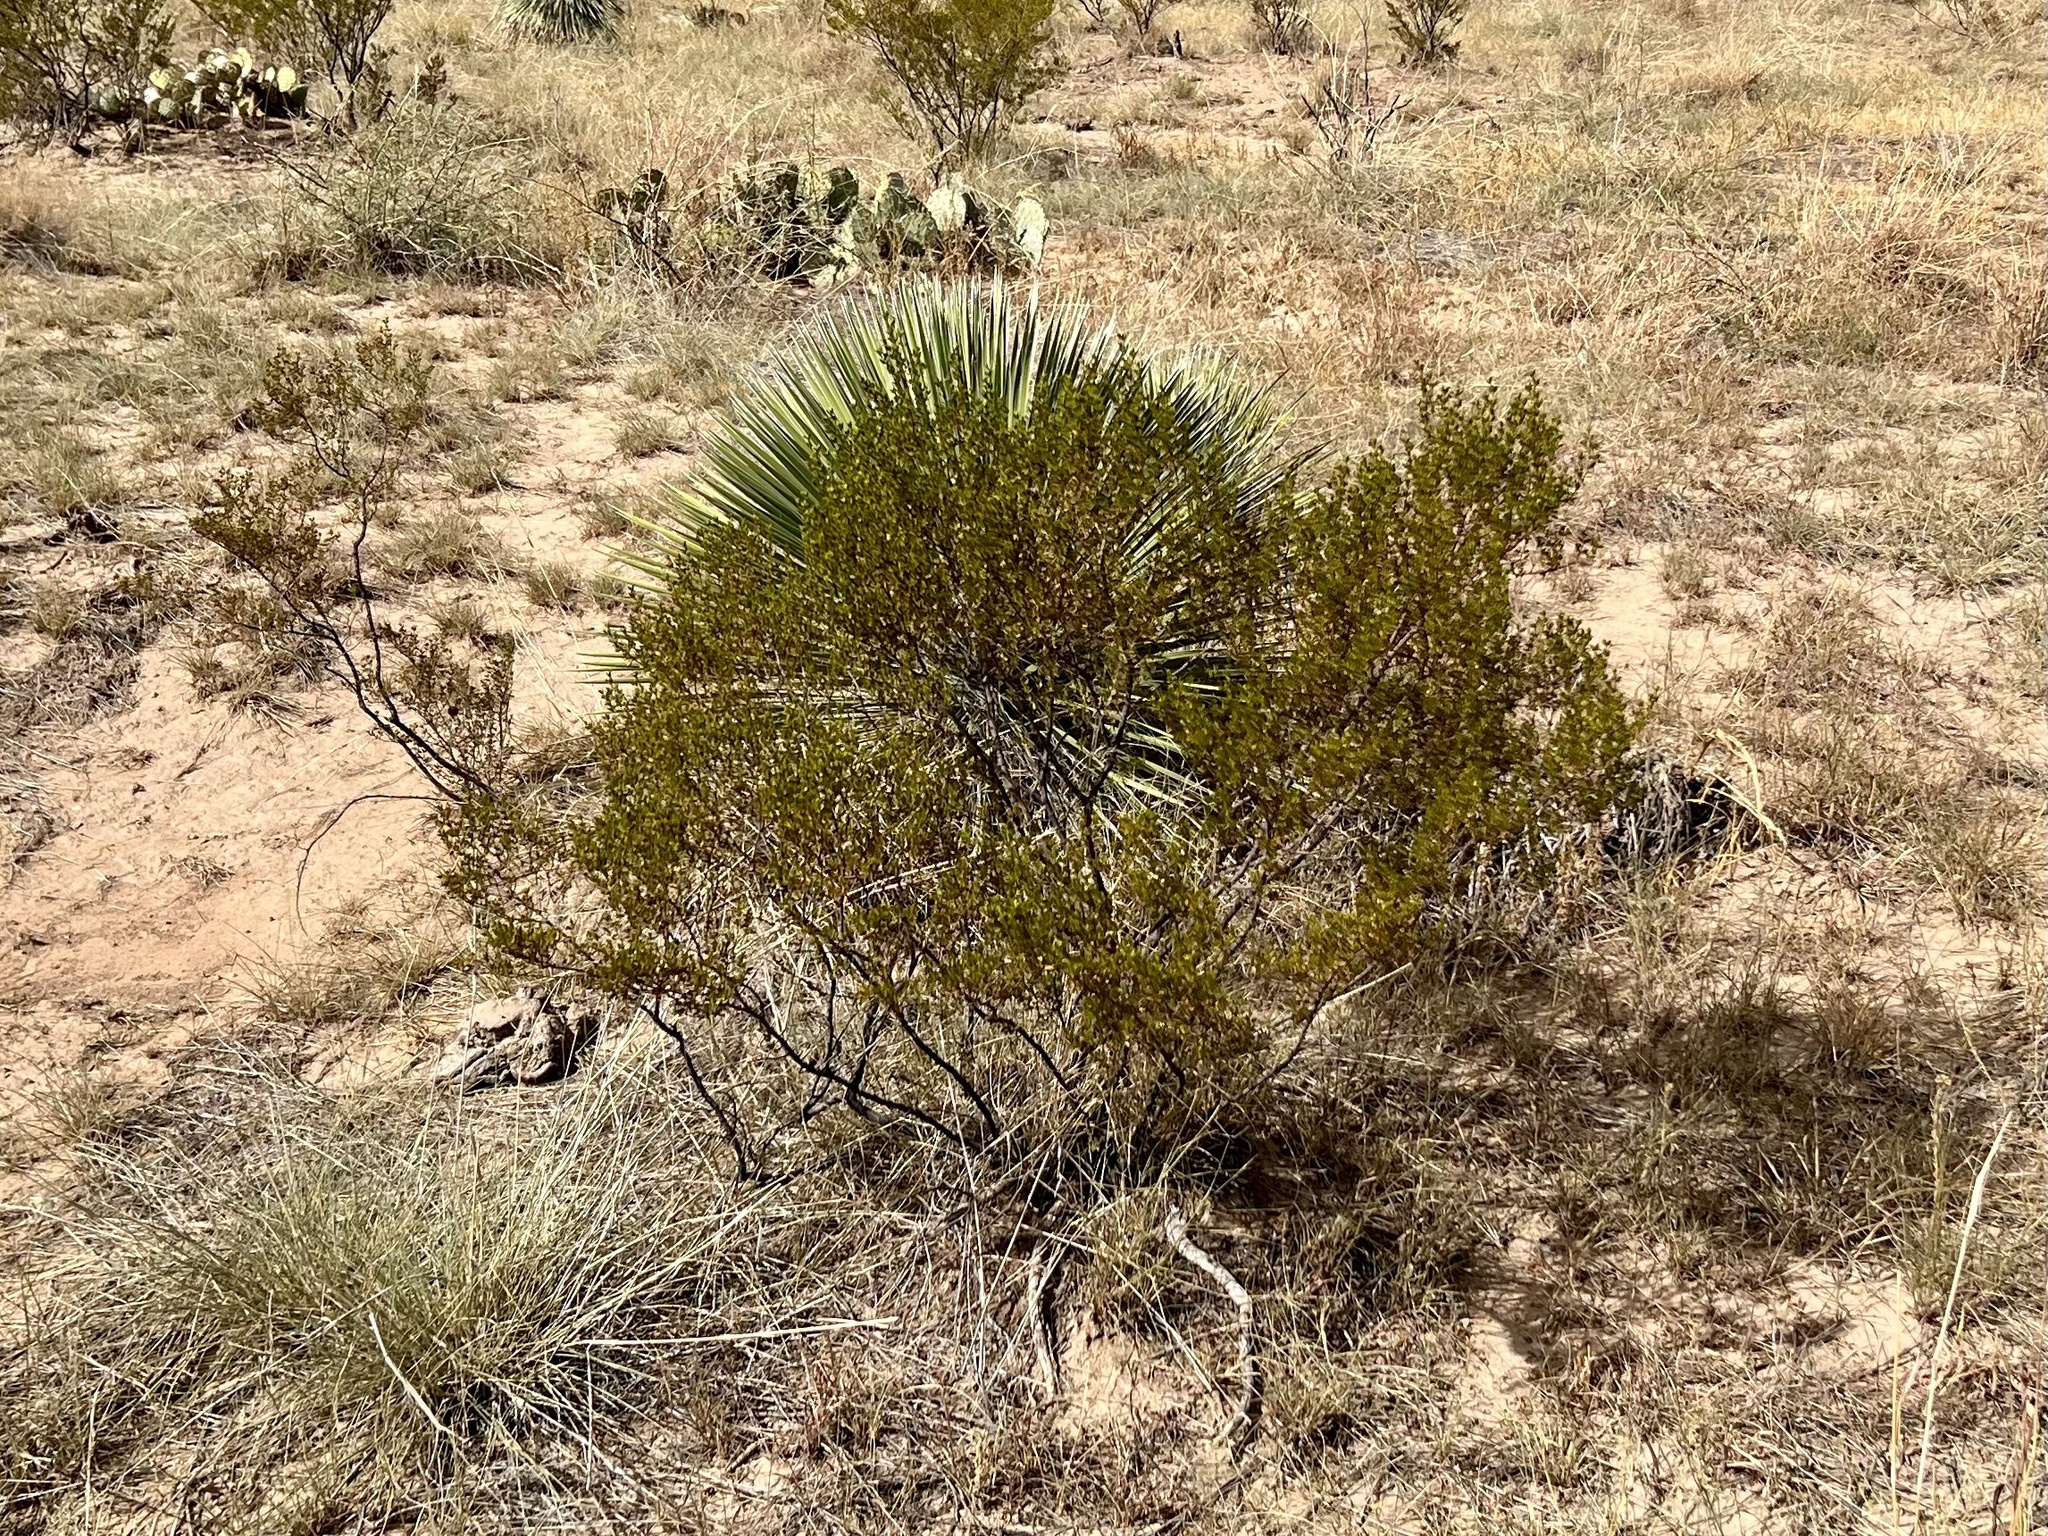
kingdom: Plantae
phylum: Tracheophyta
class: Magnoliopsida
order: Zygophyllales
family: Zygophyllaceae
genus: Larrea
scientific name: Larrea tridentata
